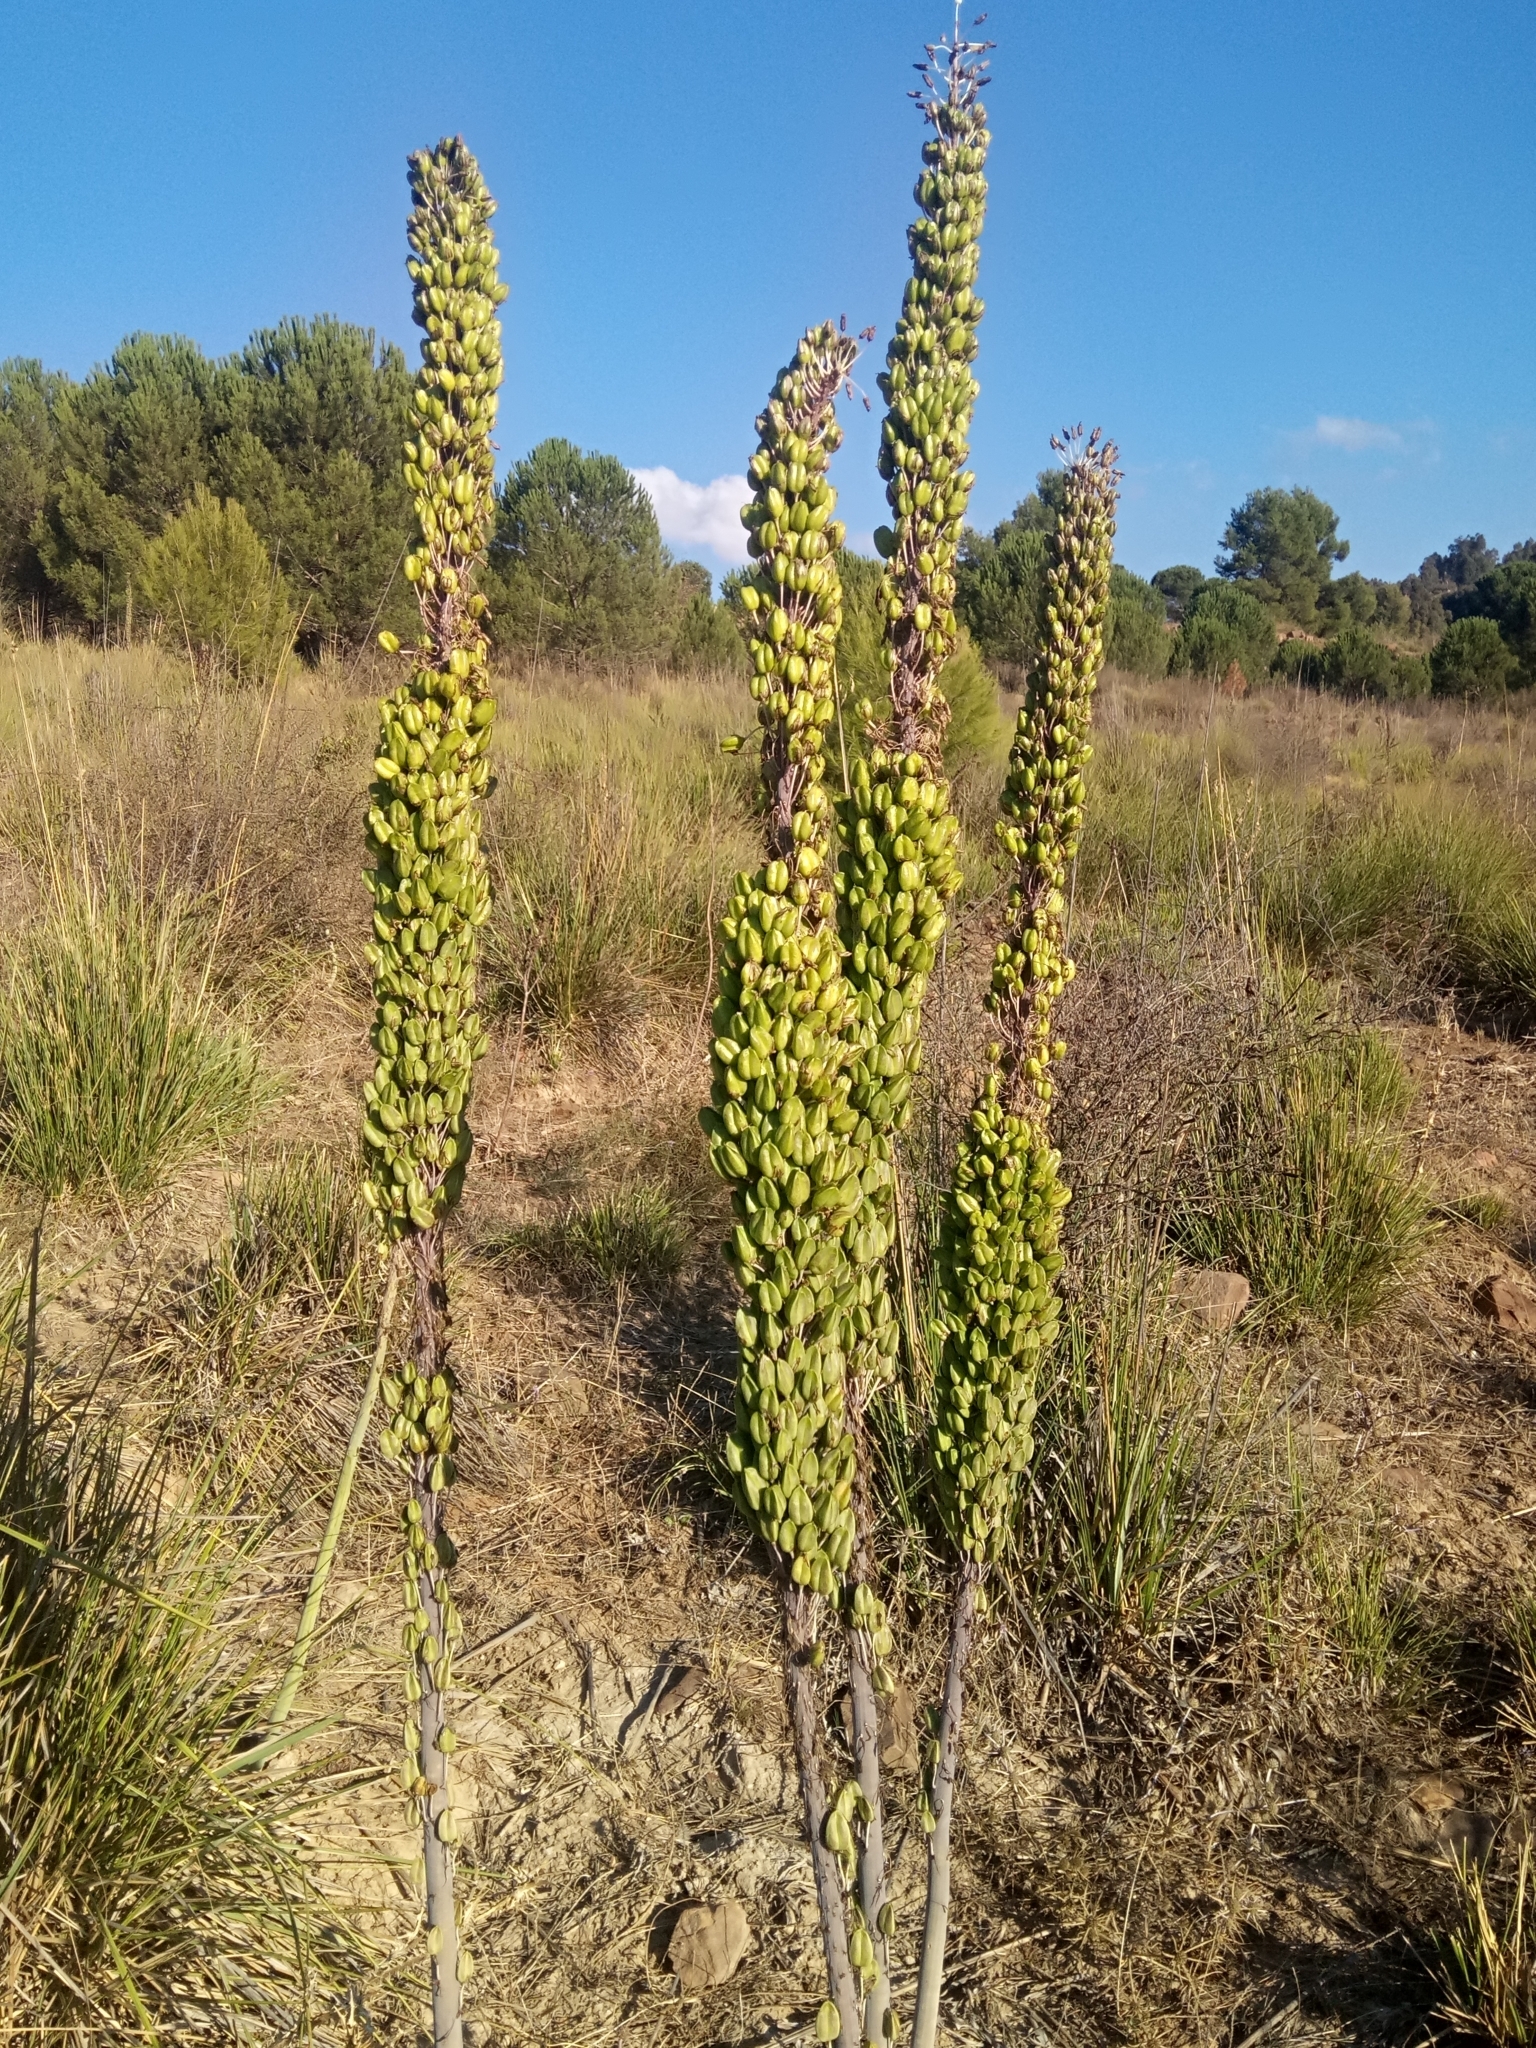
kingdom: Plantae
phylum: Tracheophyta
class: Liliopsida
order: Asparagales
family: Asparagaceae
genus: Drimia
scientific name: Drimia numidica
